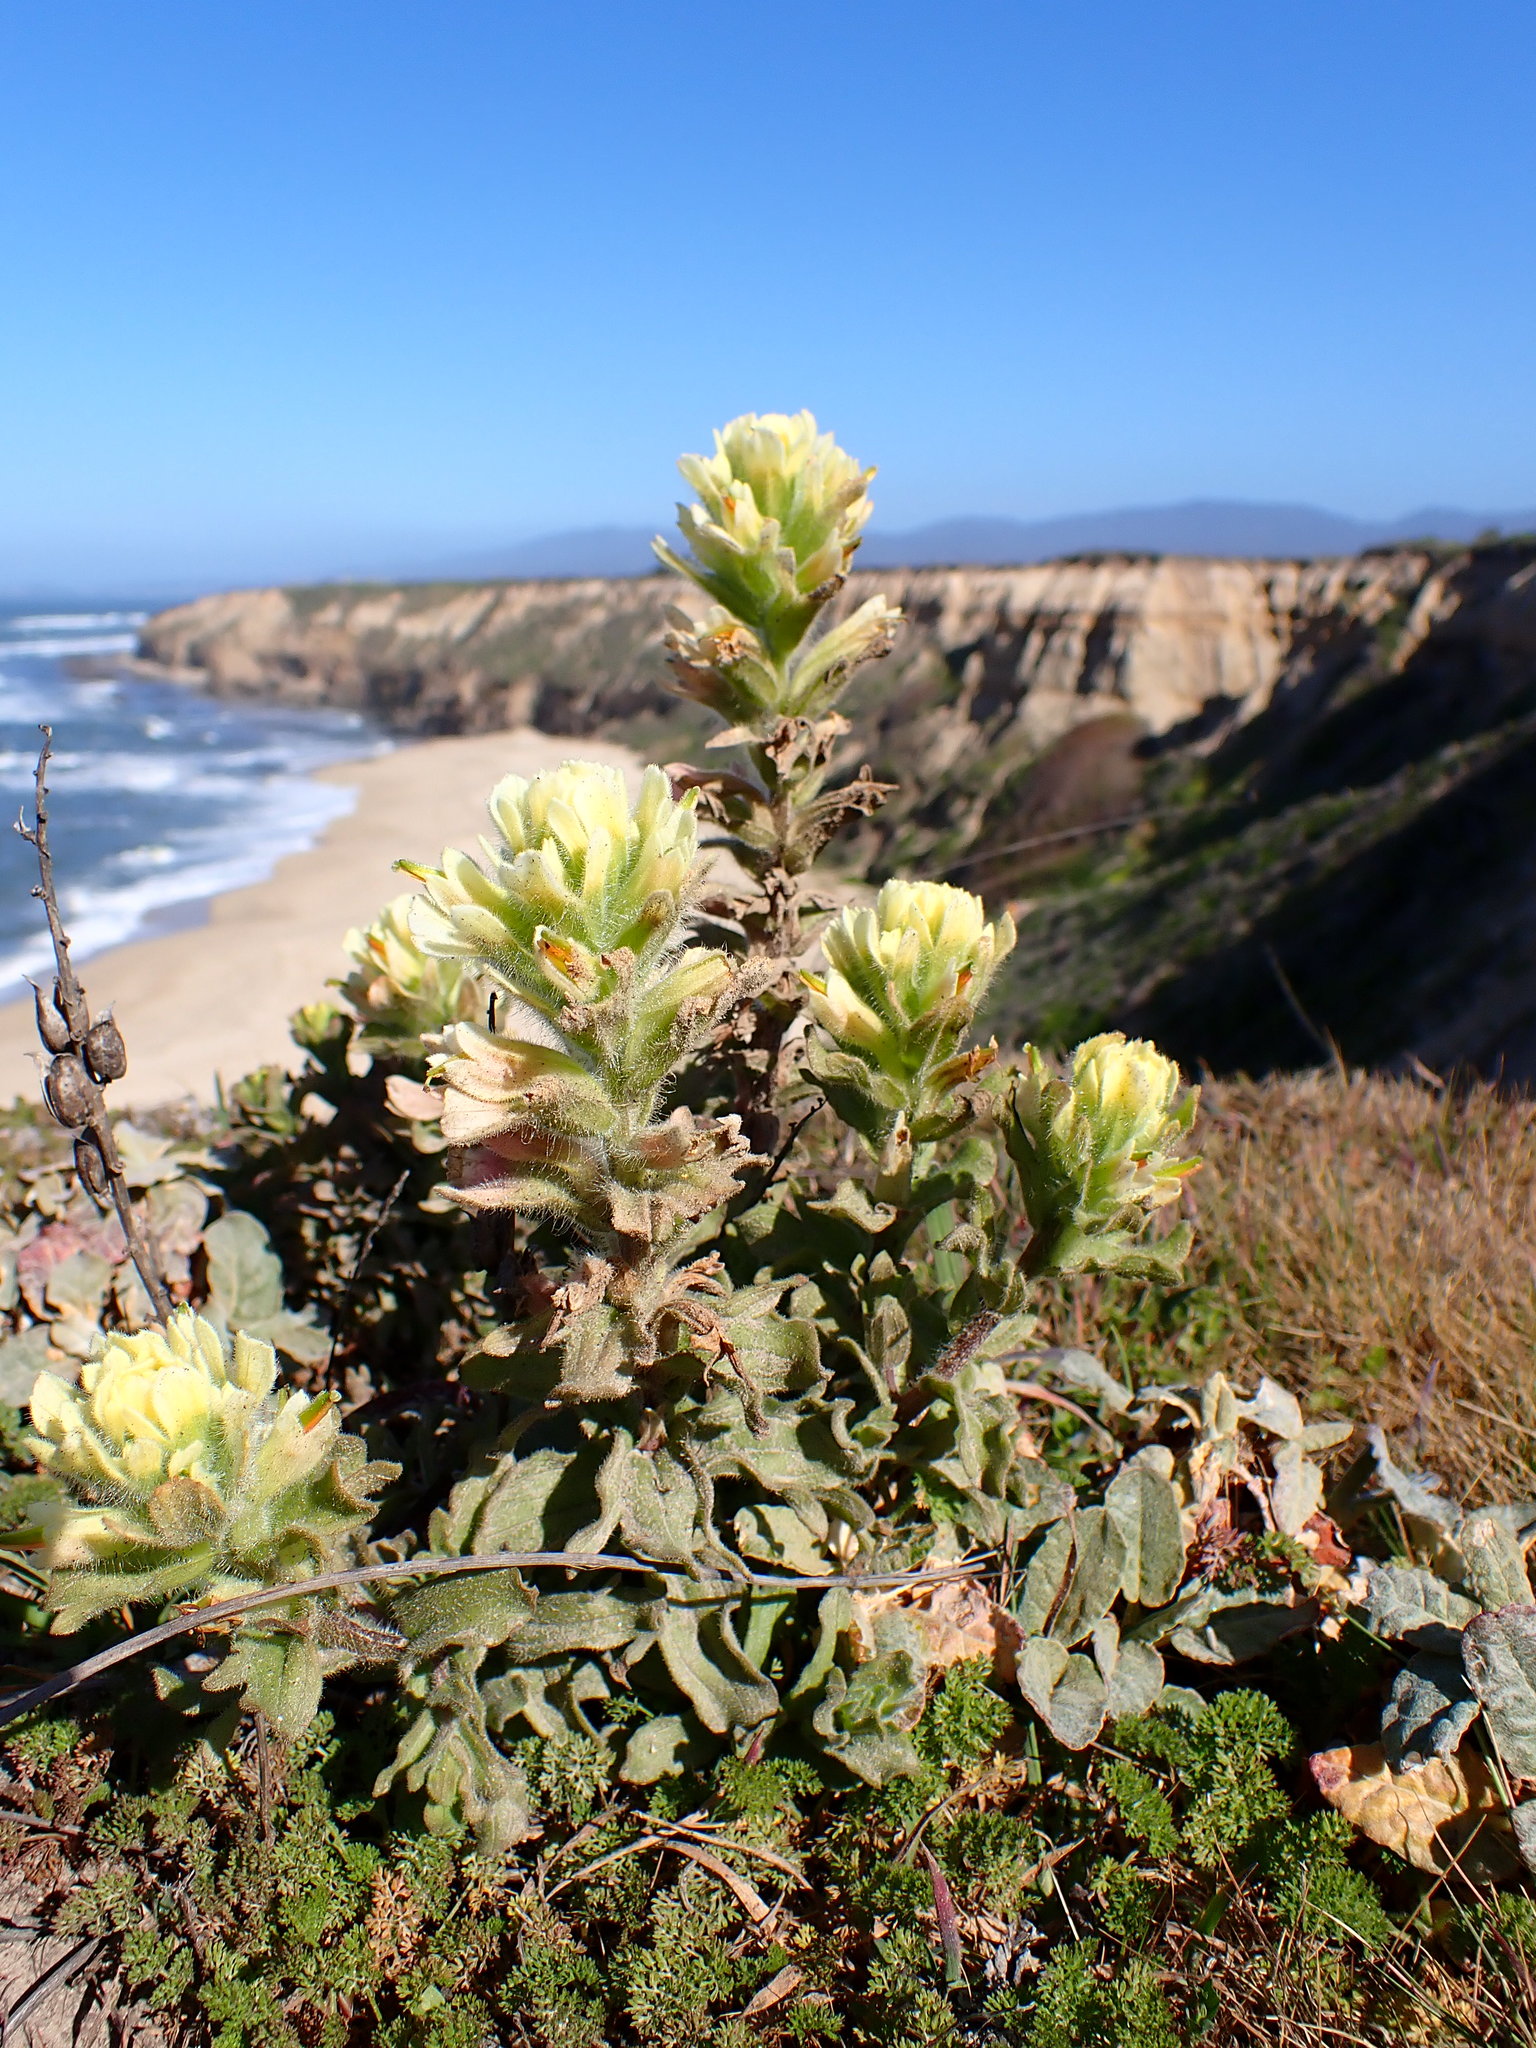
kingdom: Plantae
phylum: Tracheophyta
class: Magnoliopsida
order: Lamiales
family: Orobanchaceae
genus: Castilleja
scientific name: Castilleja wightii
